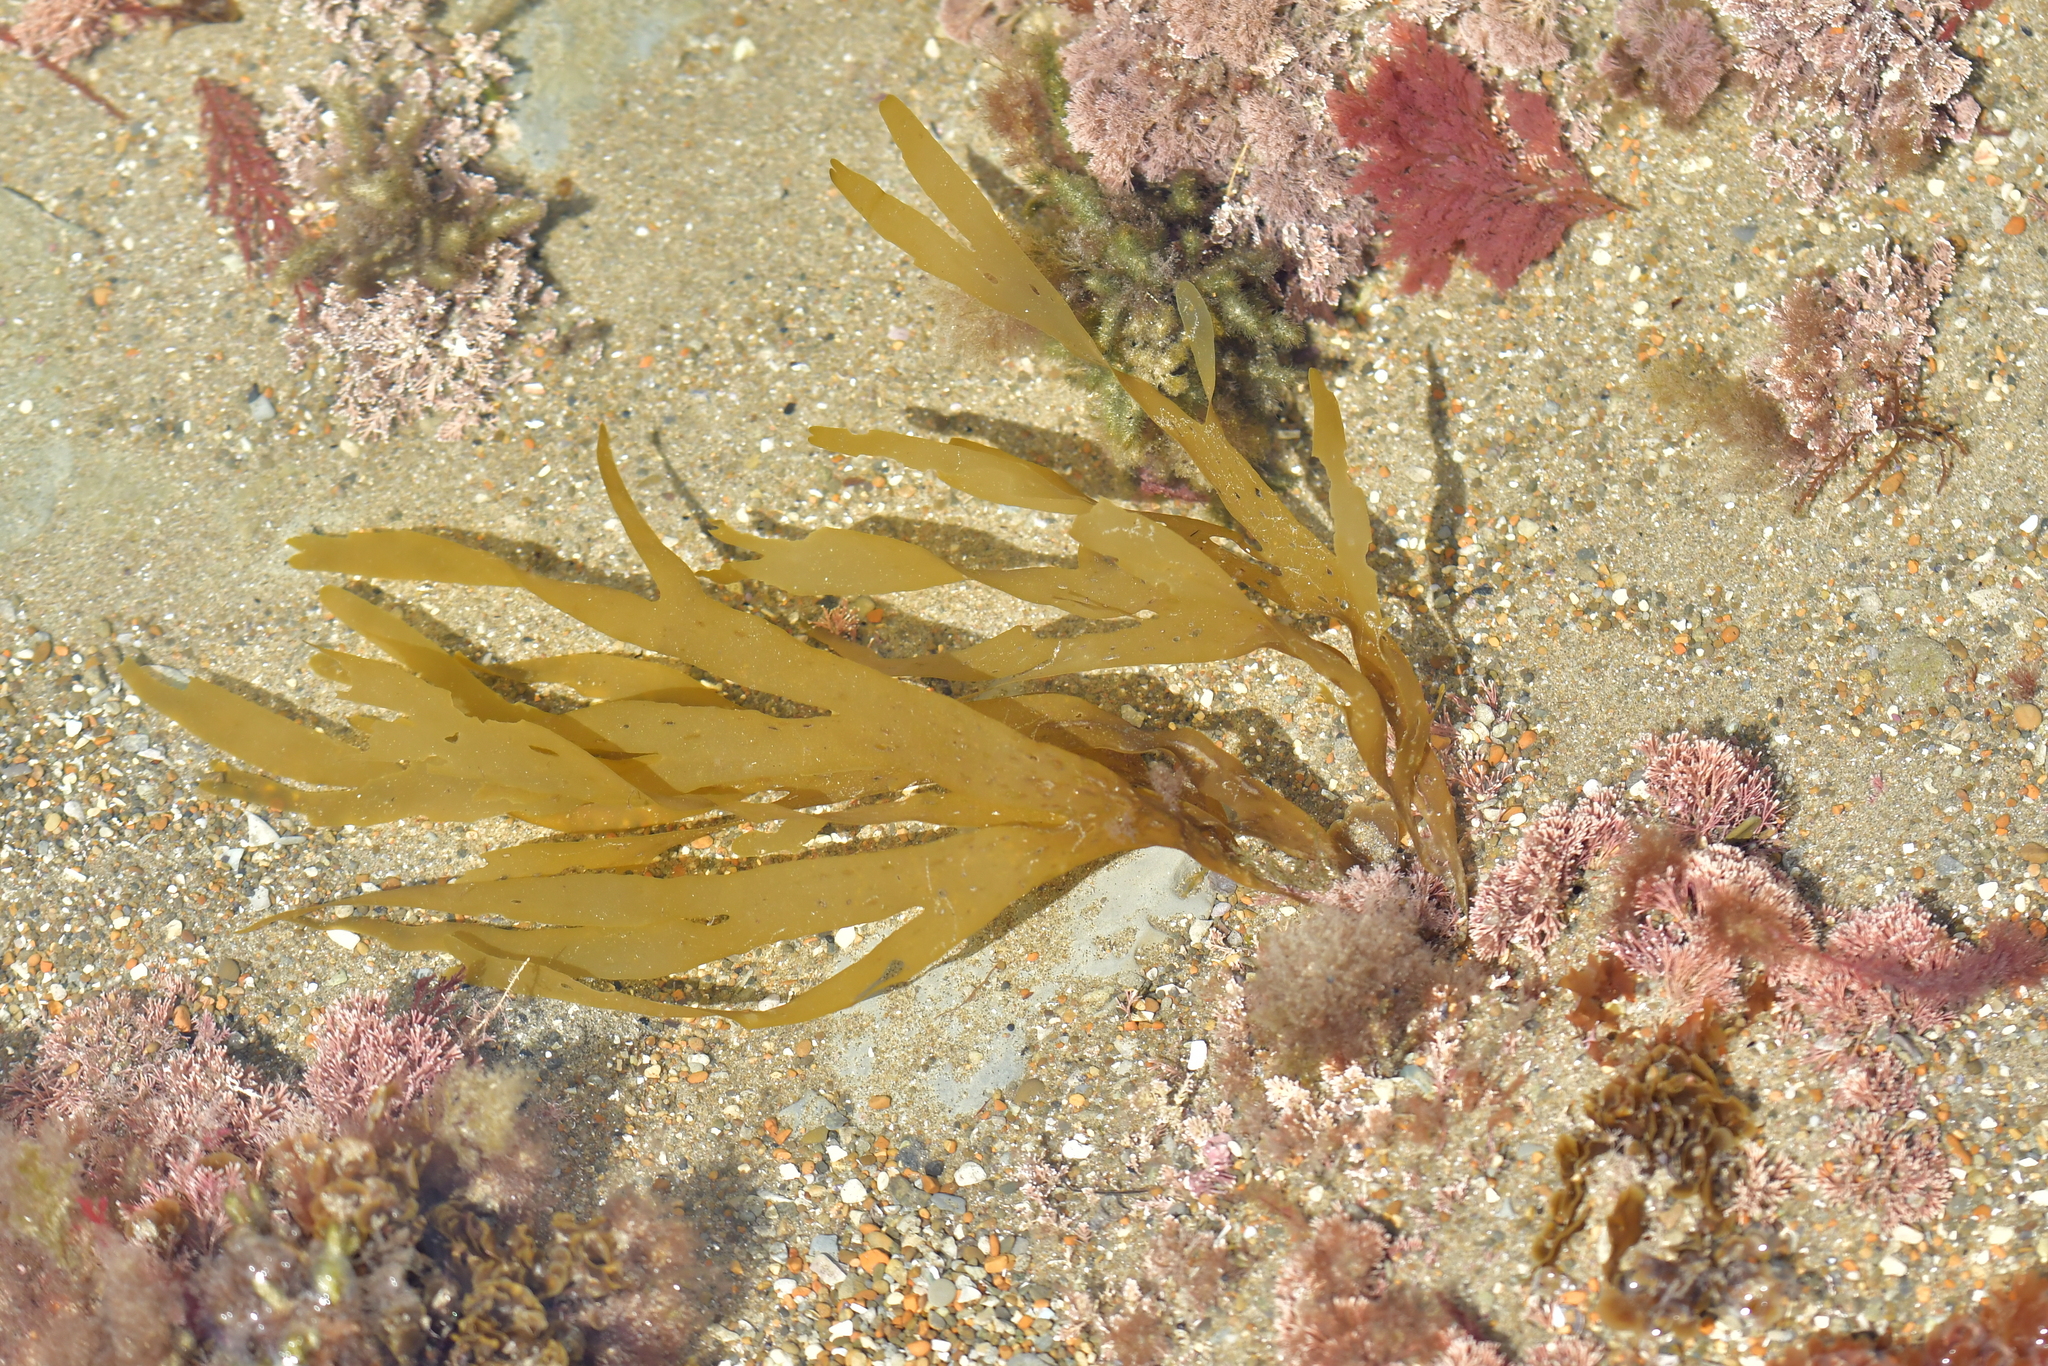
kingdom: Chromista
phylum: Ochrophyta
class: Phaeophyceae
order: Dictyotales
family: Dictyotaceae
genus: Dictyota
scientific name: Dictyota kunthii
